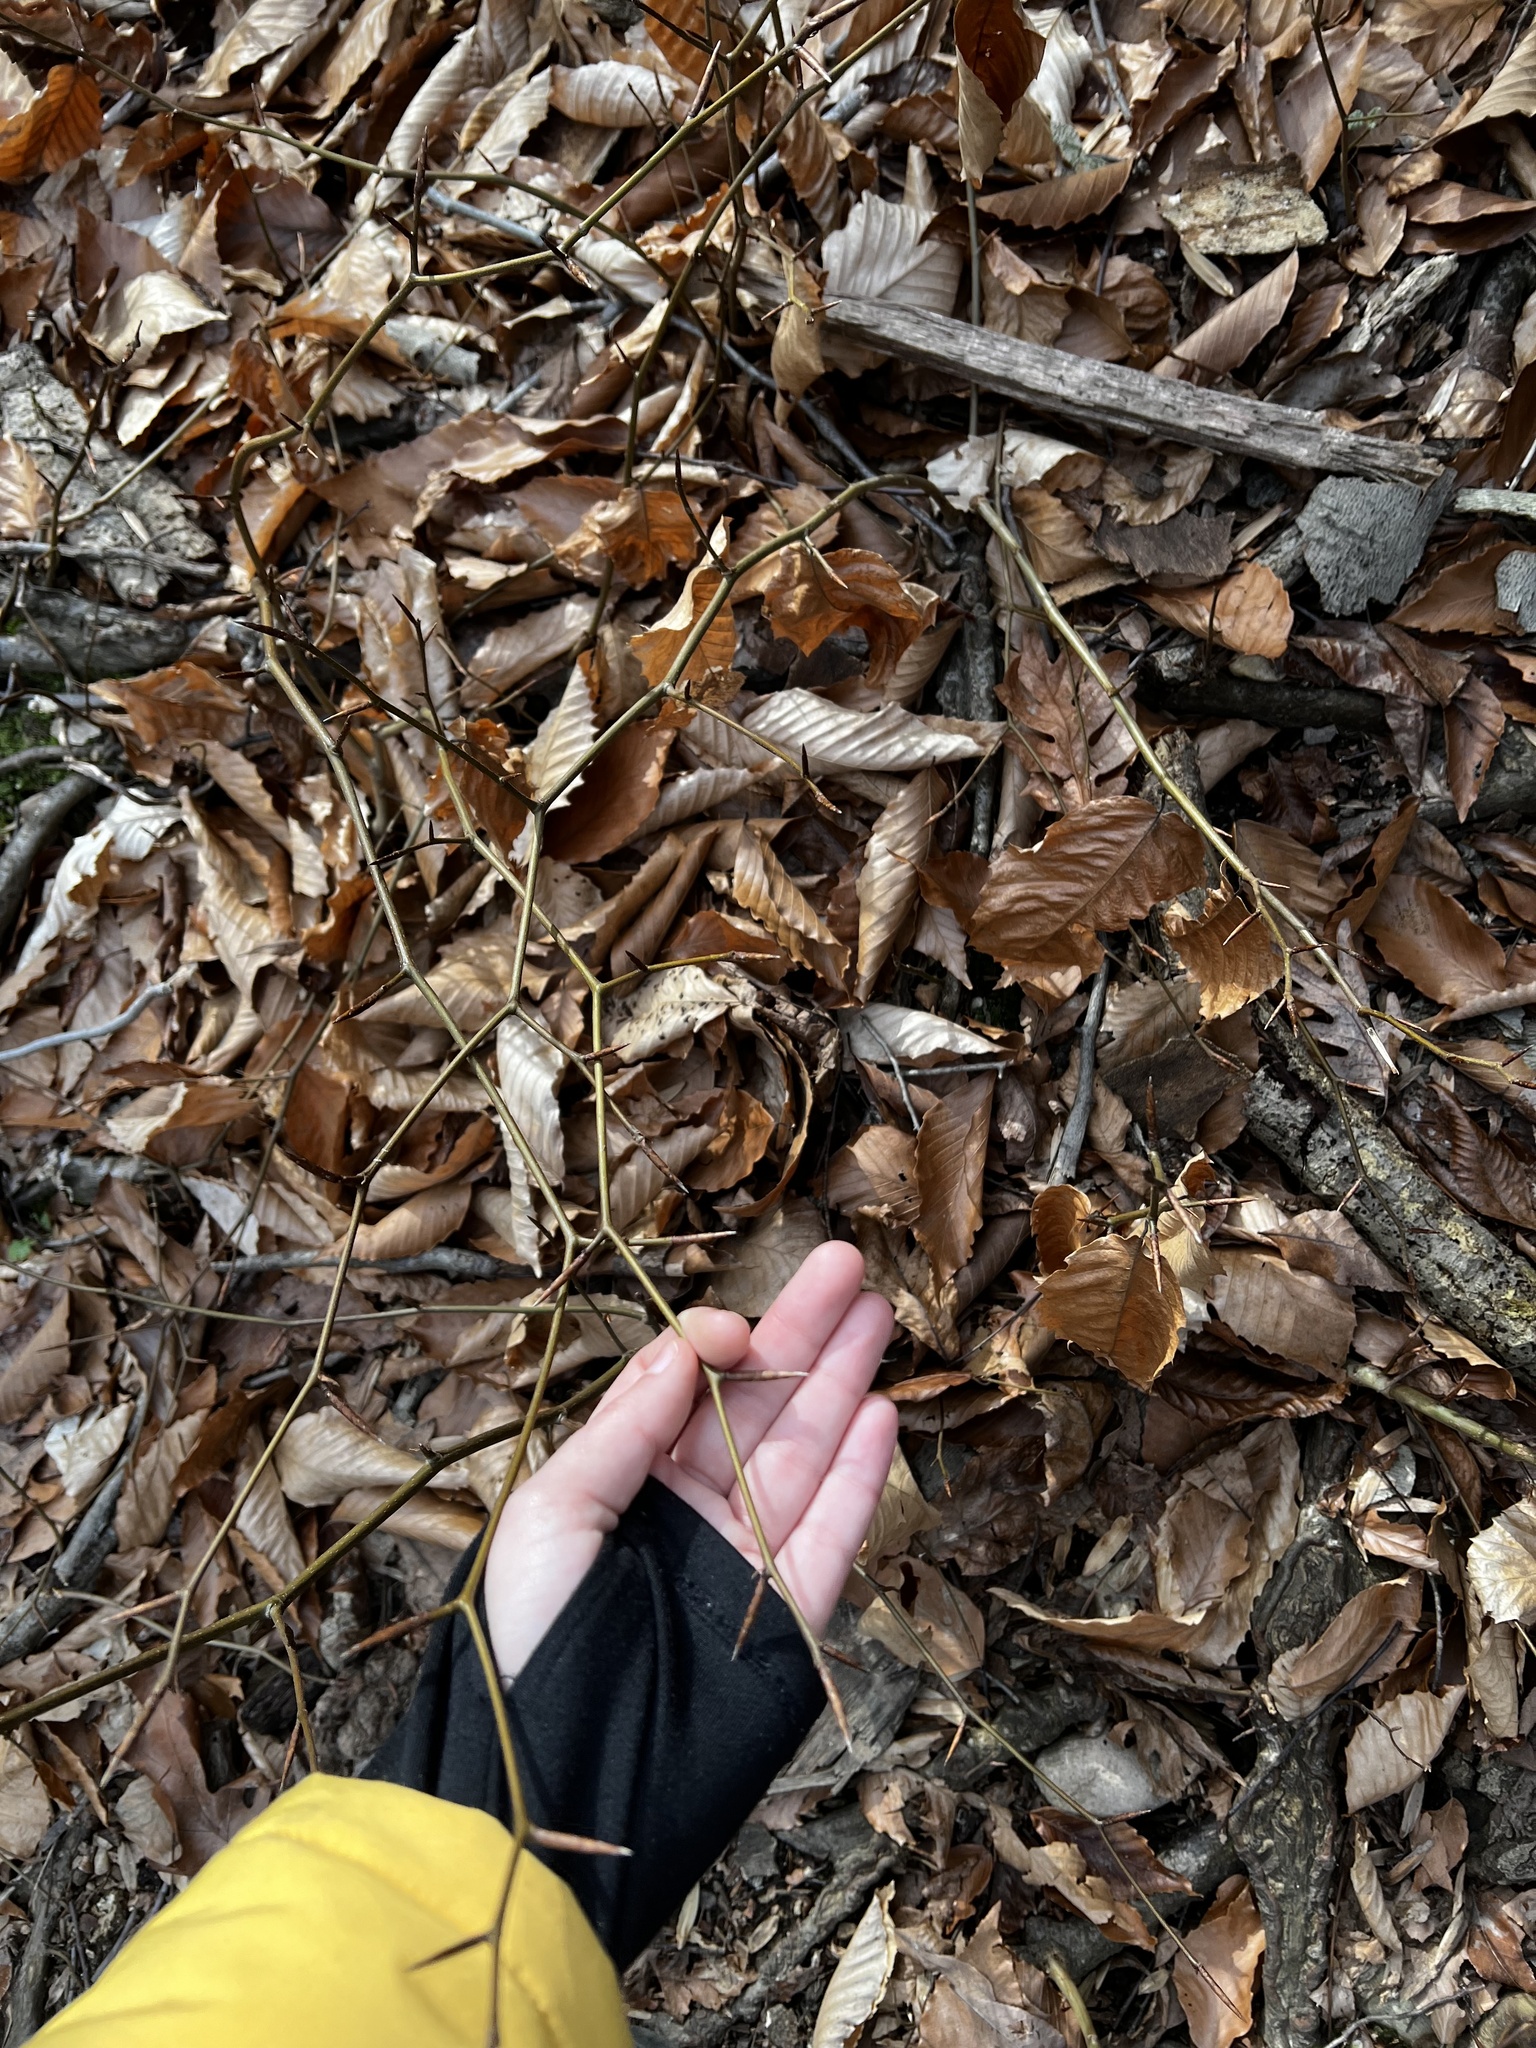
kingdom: Plantae
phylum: Tracheophyta
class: Magnoliopsida
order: Fagales
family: Fagaceae
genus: Fagus
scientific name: Fagus grandifolia
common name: American beech
